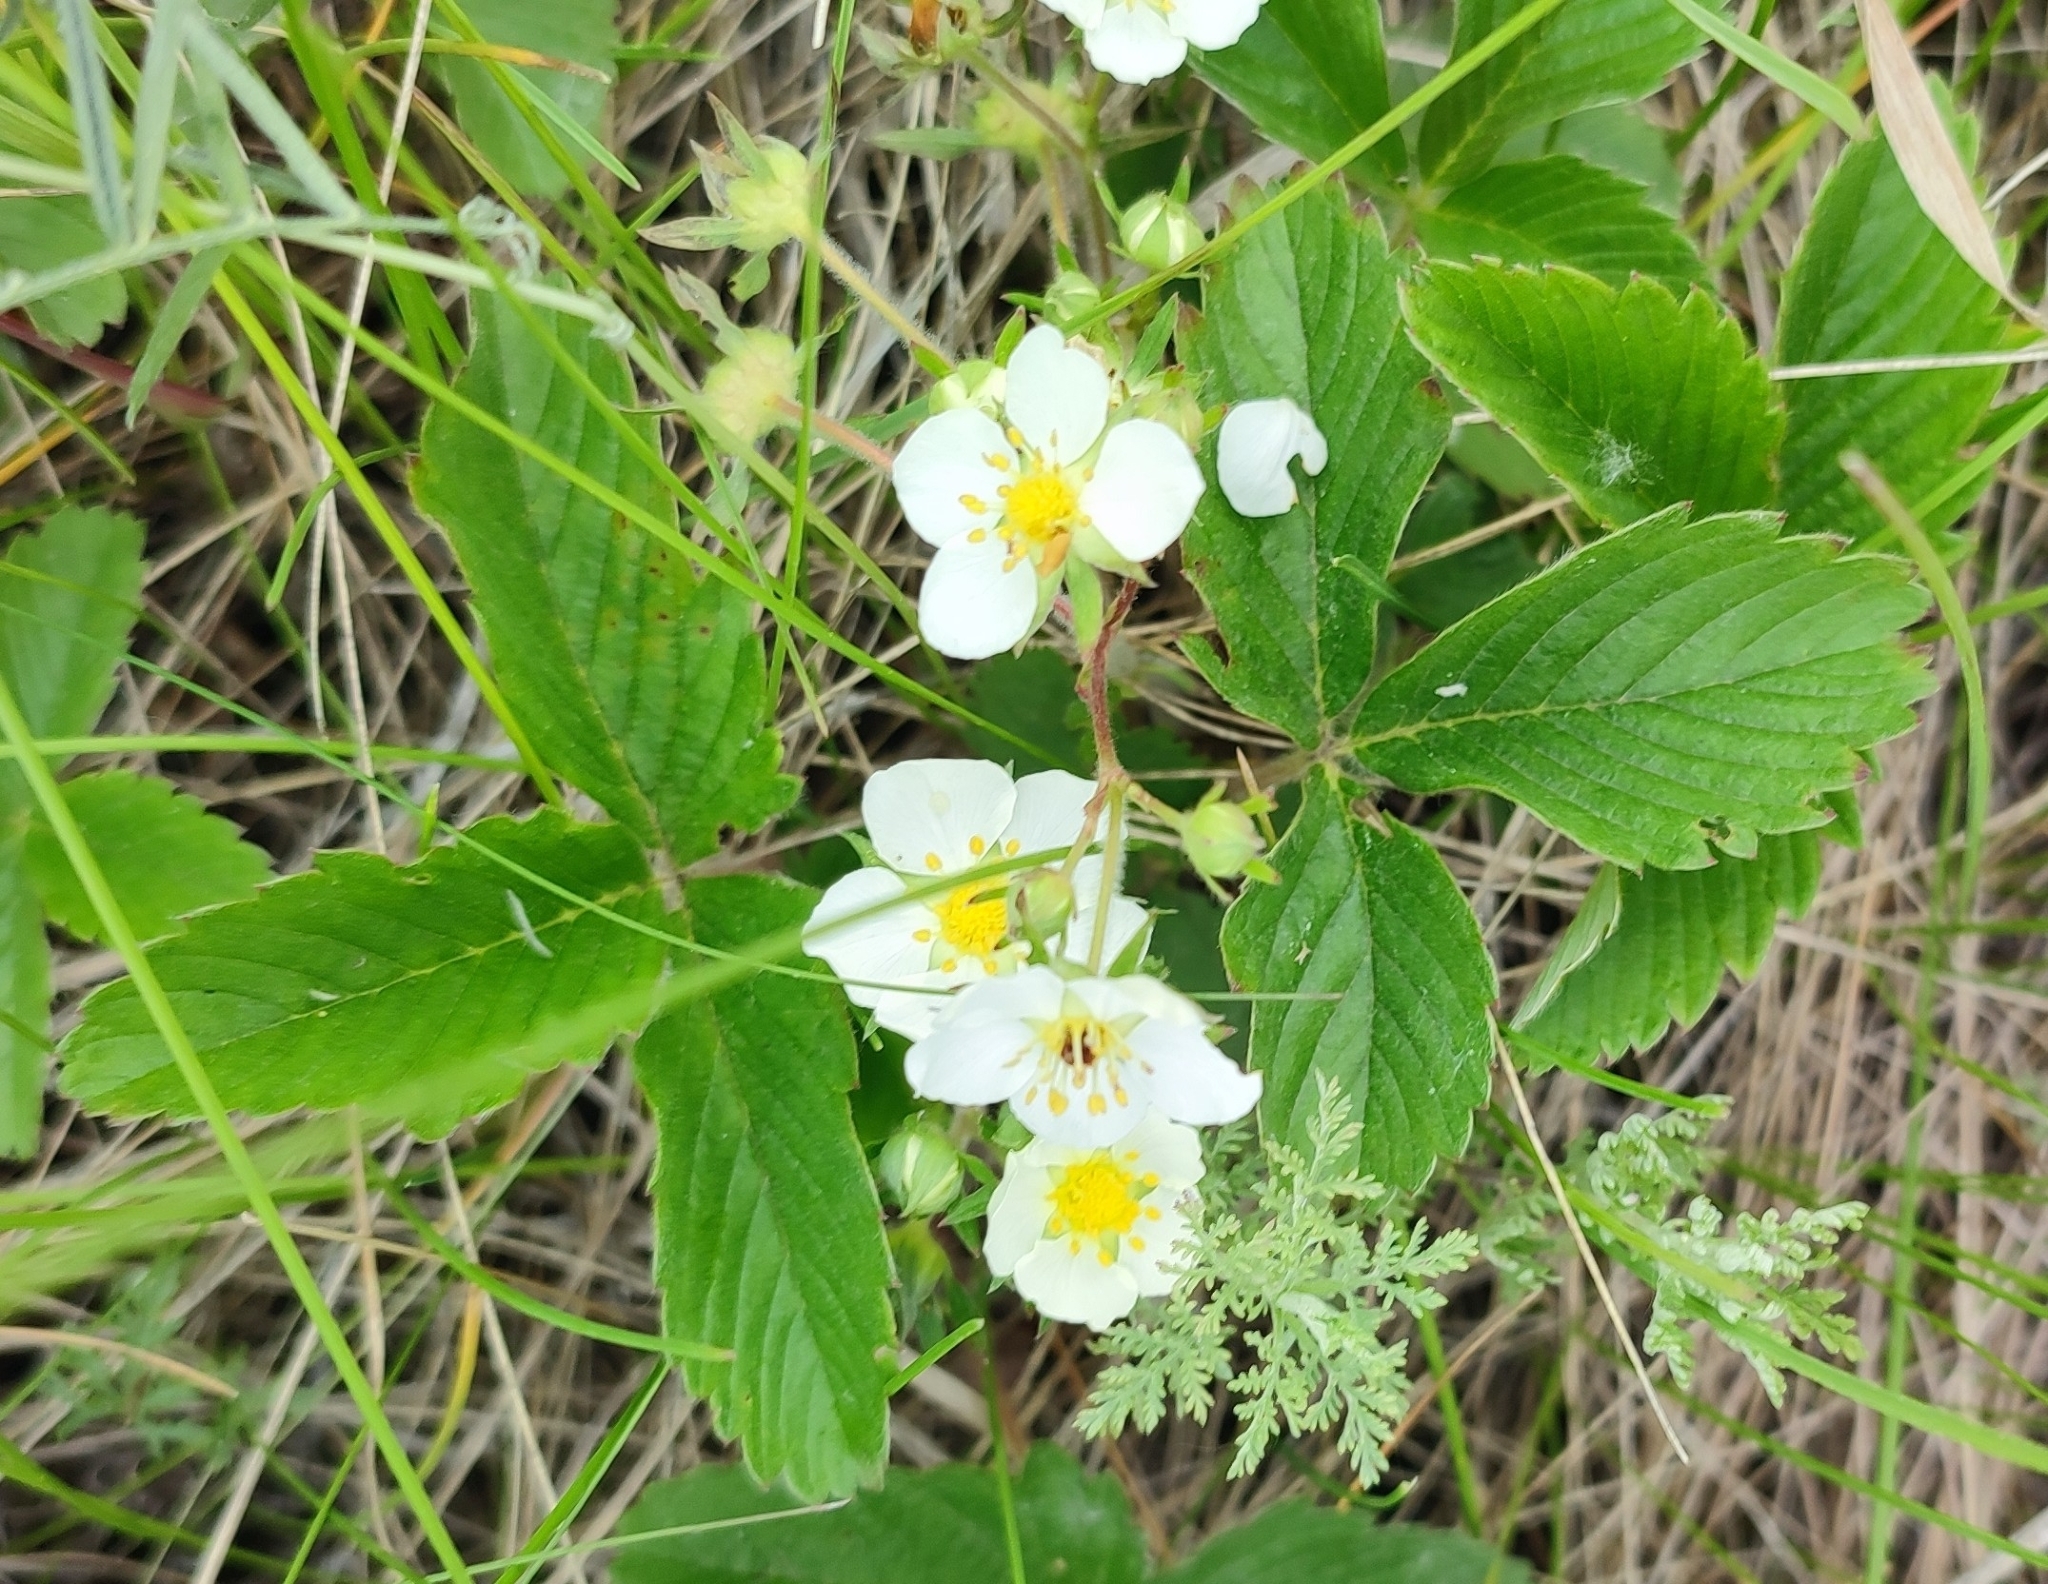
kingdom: Plantae
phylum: Tracheophyta
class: Magnoliopsida
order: Rosales
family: Rosaceae
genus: Fragaria
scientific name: Fragaria viridis
